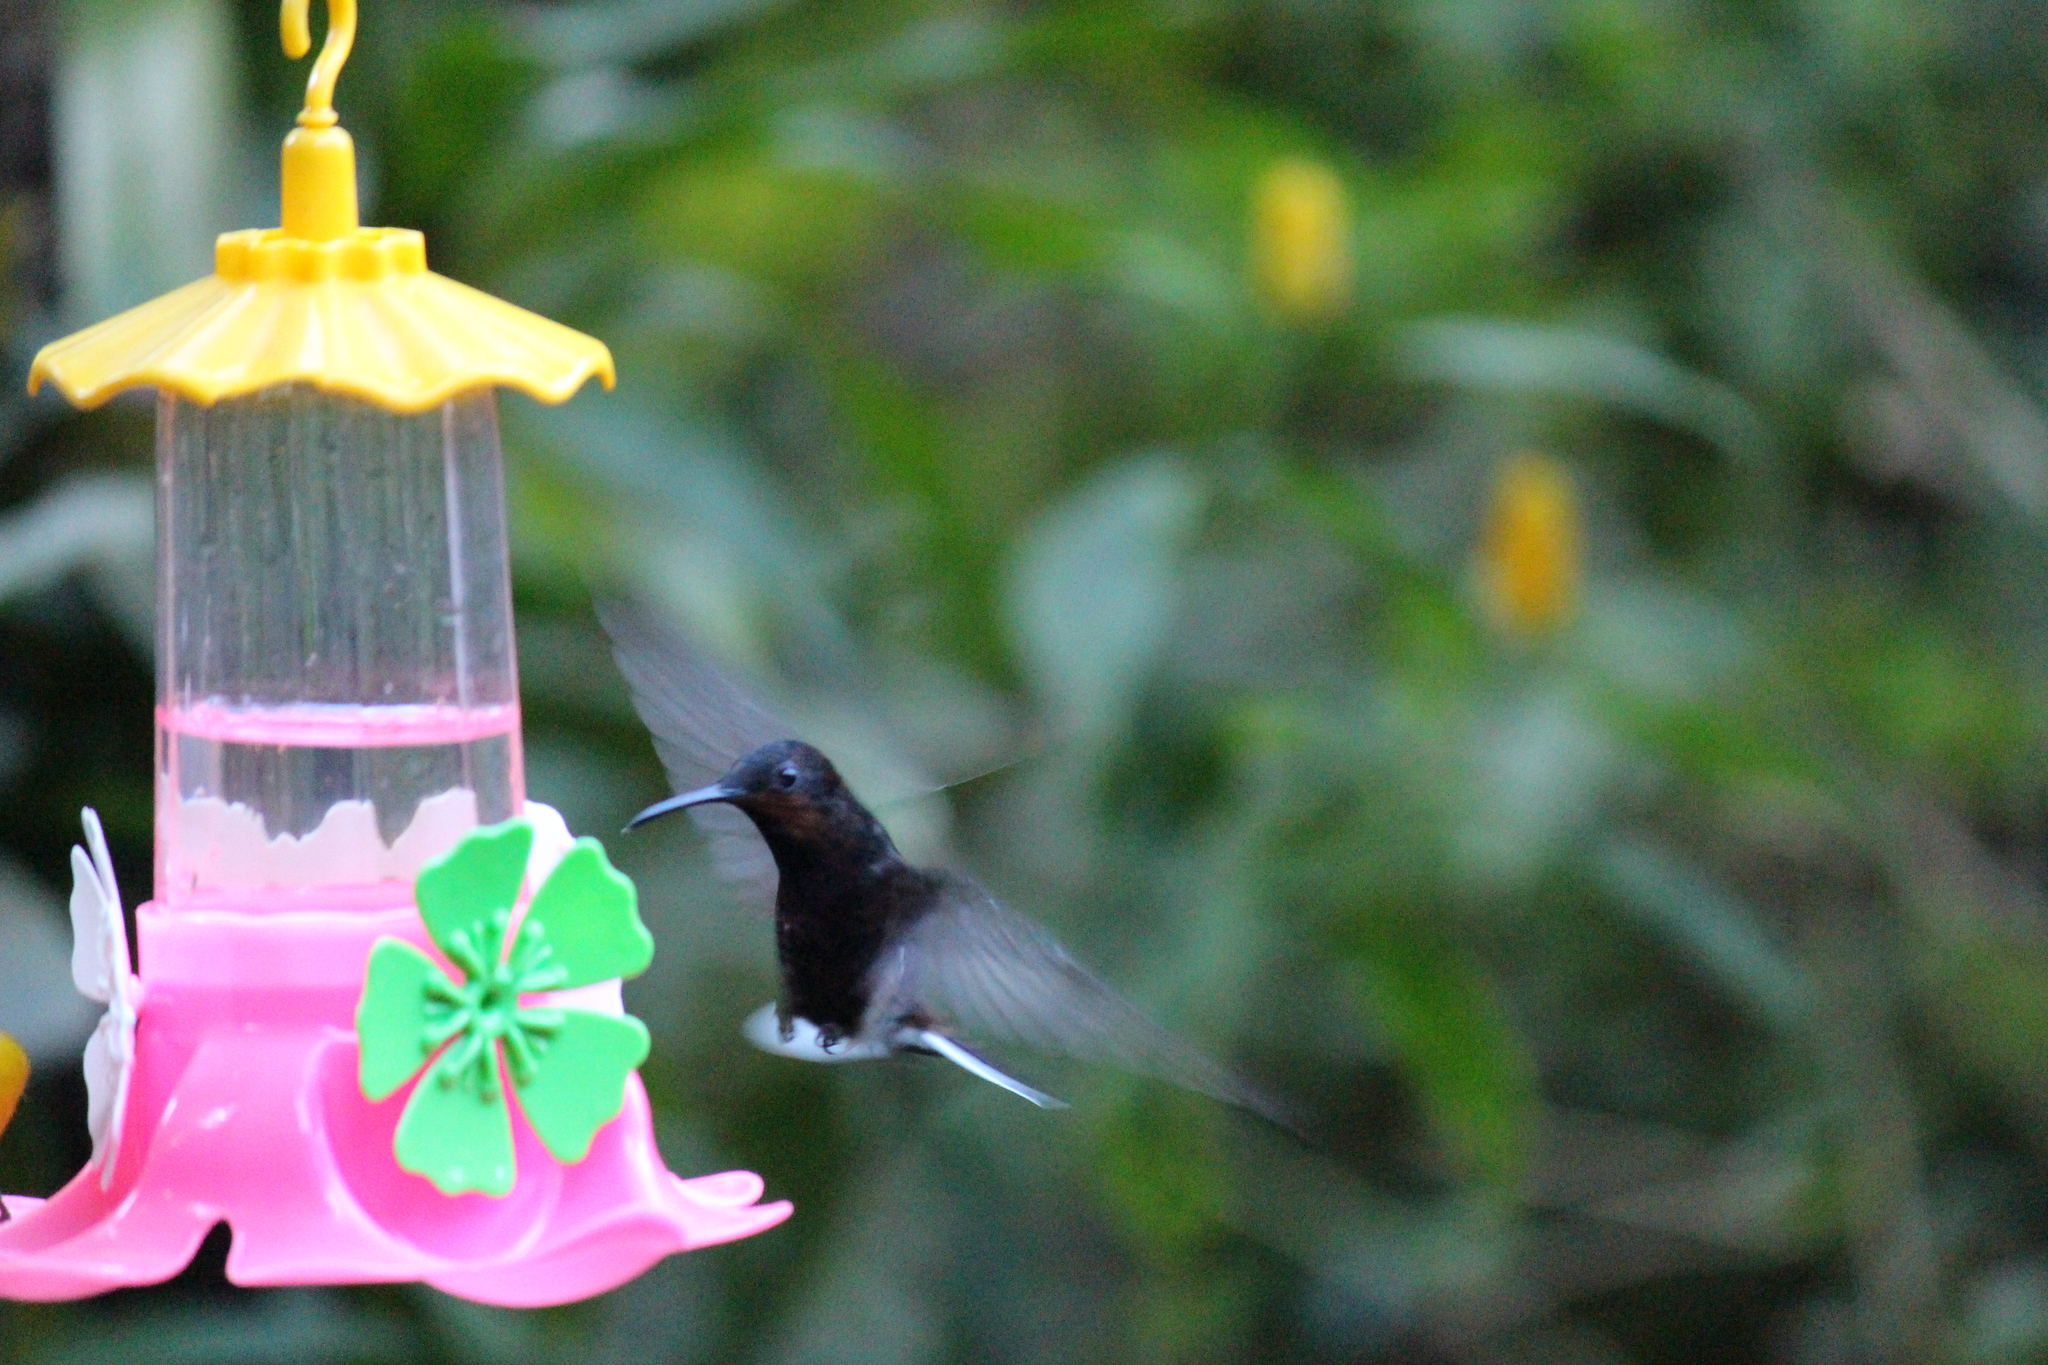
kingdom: Animalia
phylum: Chordata
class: Aves
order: Apodiformes
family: Trochilidae
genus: Florisuga
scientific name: Florisuga fusca
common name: Black jacobin
